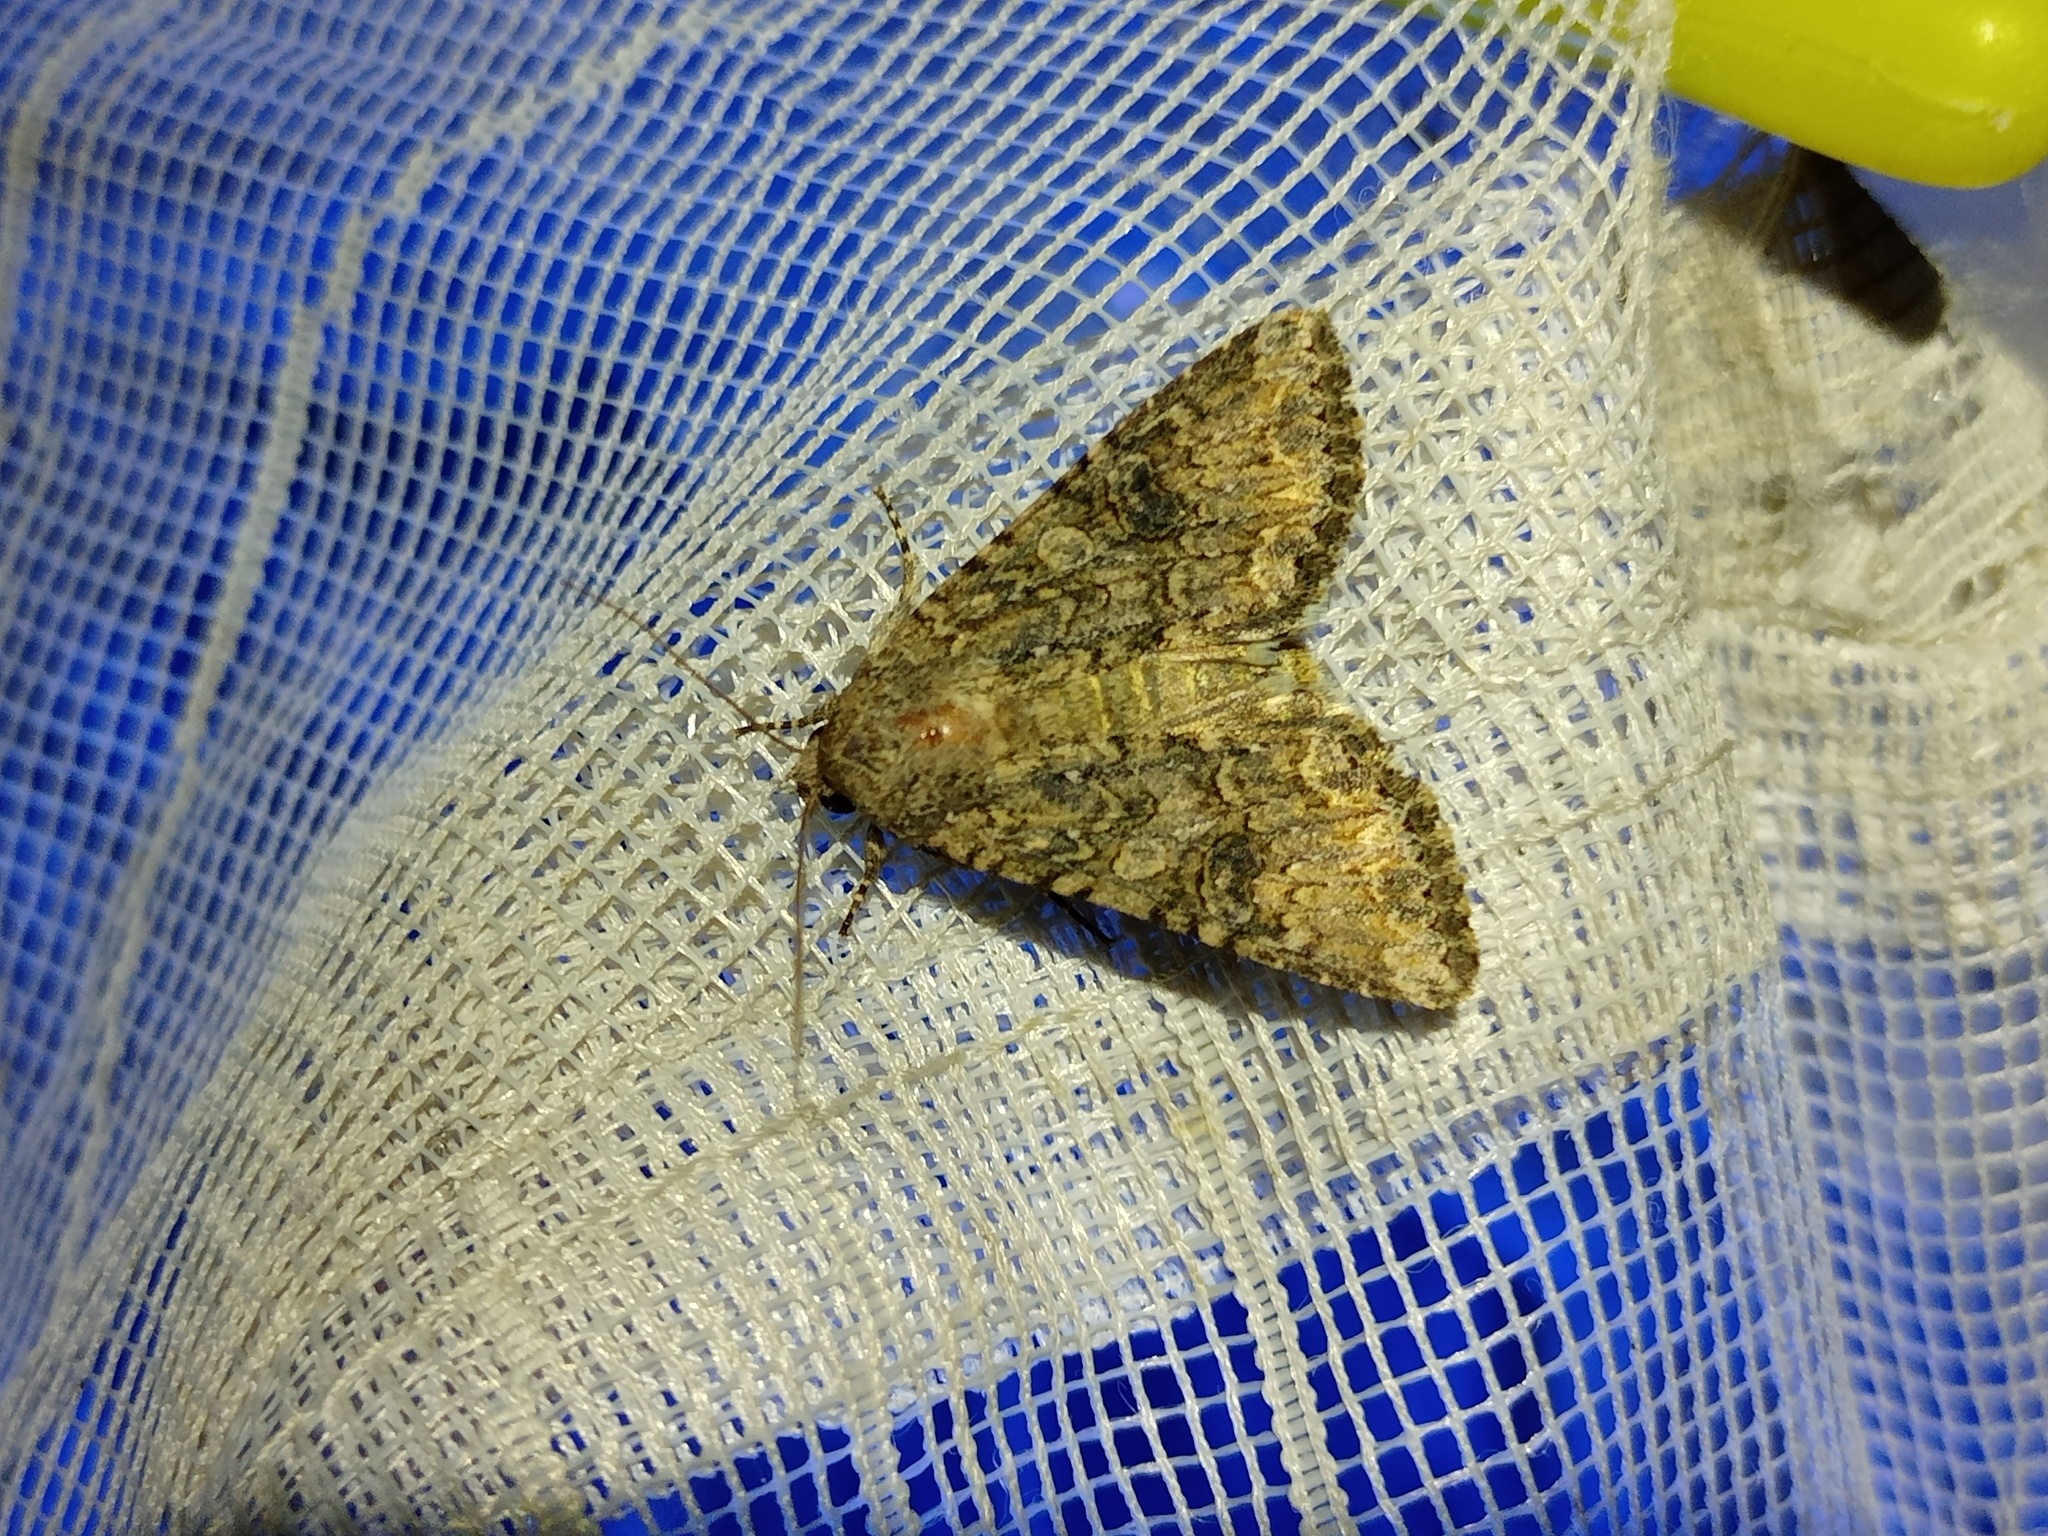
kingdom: Animalia
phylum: Arthropoda
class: Insecta
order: Lepidoptera
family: Noctuidae
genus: Anarta
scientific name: Anarta trifolii
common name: Clover cutworm moth
